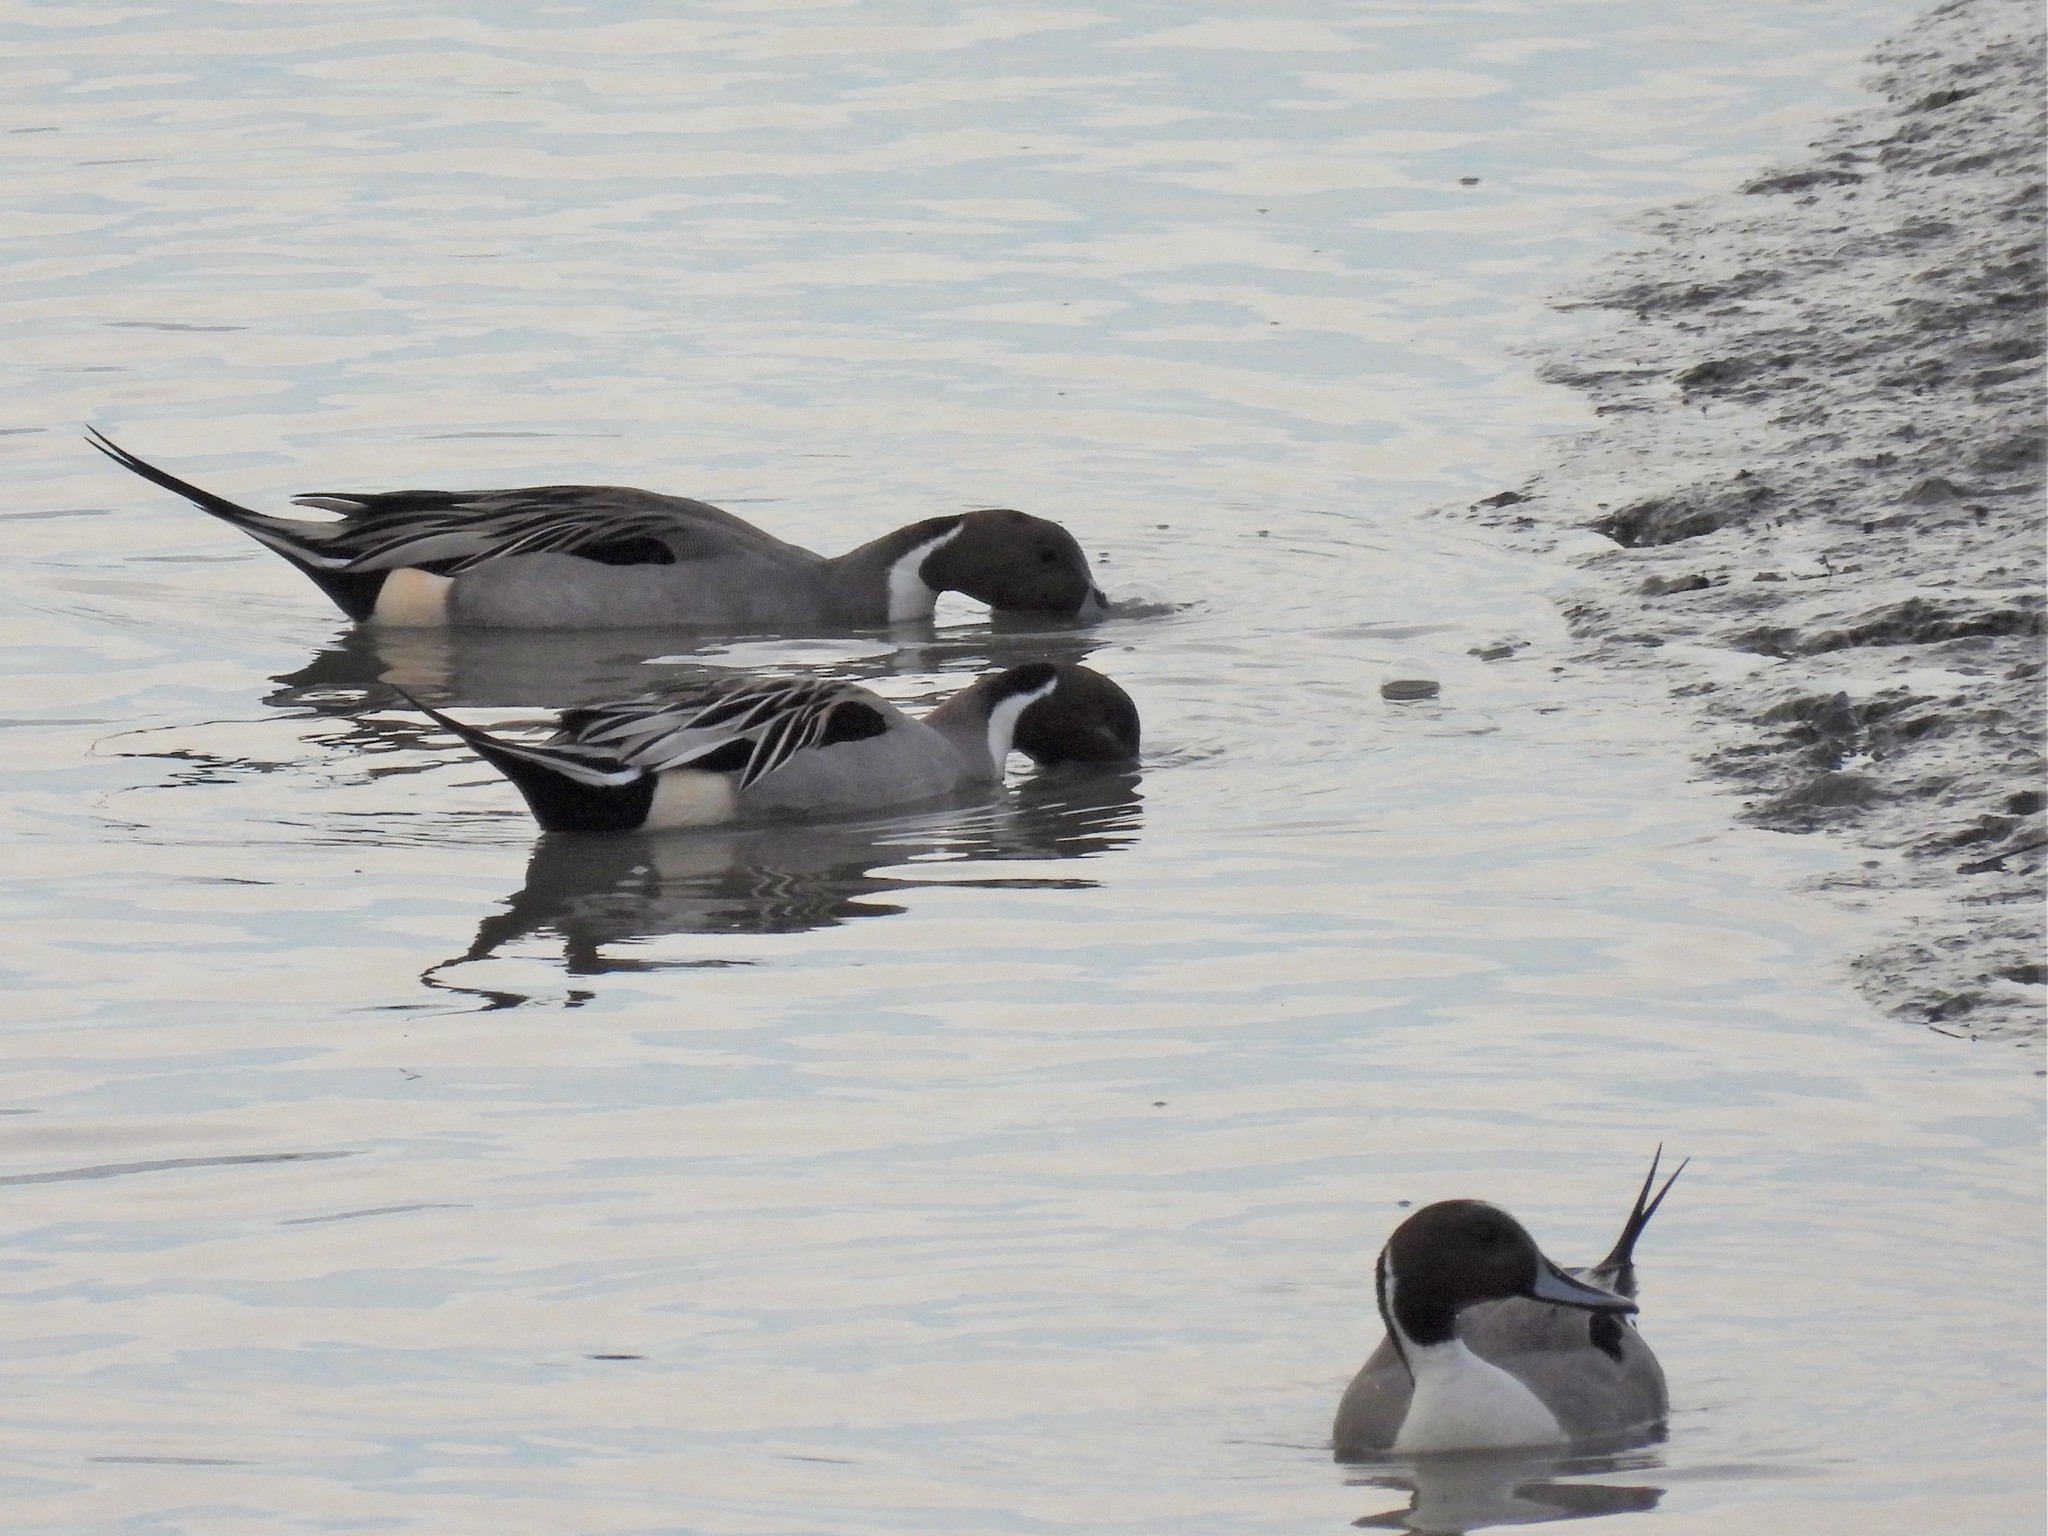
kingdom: Animalia
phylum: Chordata
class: Aves
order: Anseriformes
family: Anatidae
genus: Anas
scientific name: Anas acuta
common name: Northern pintail
